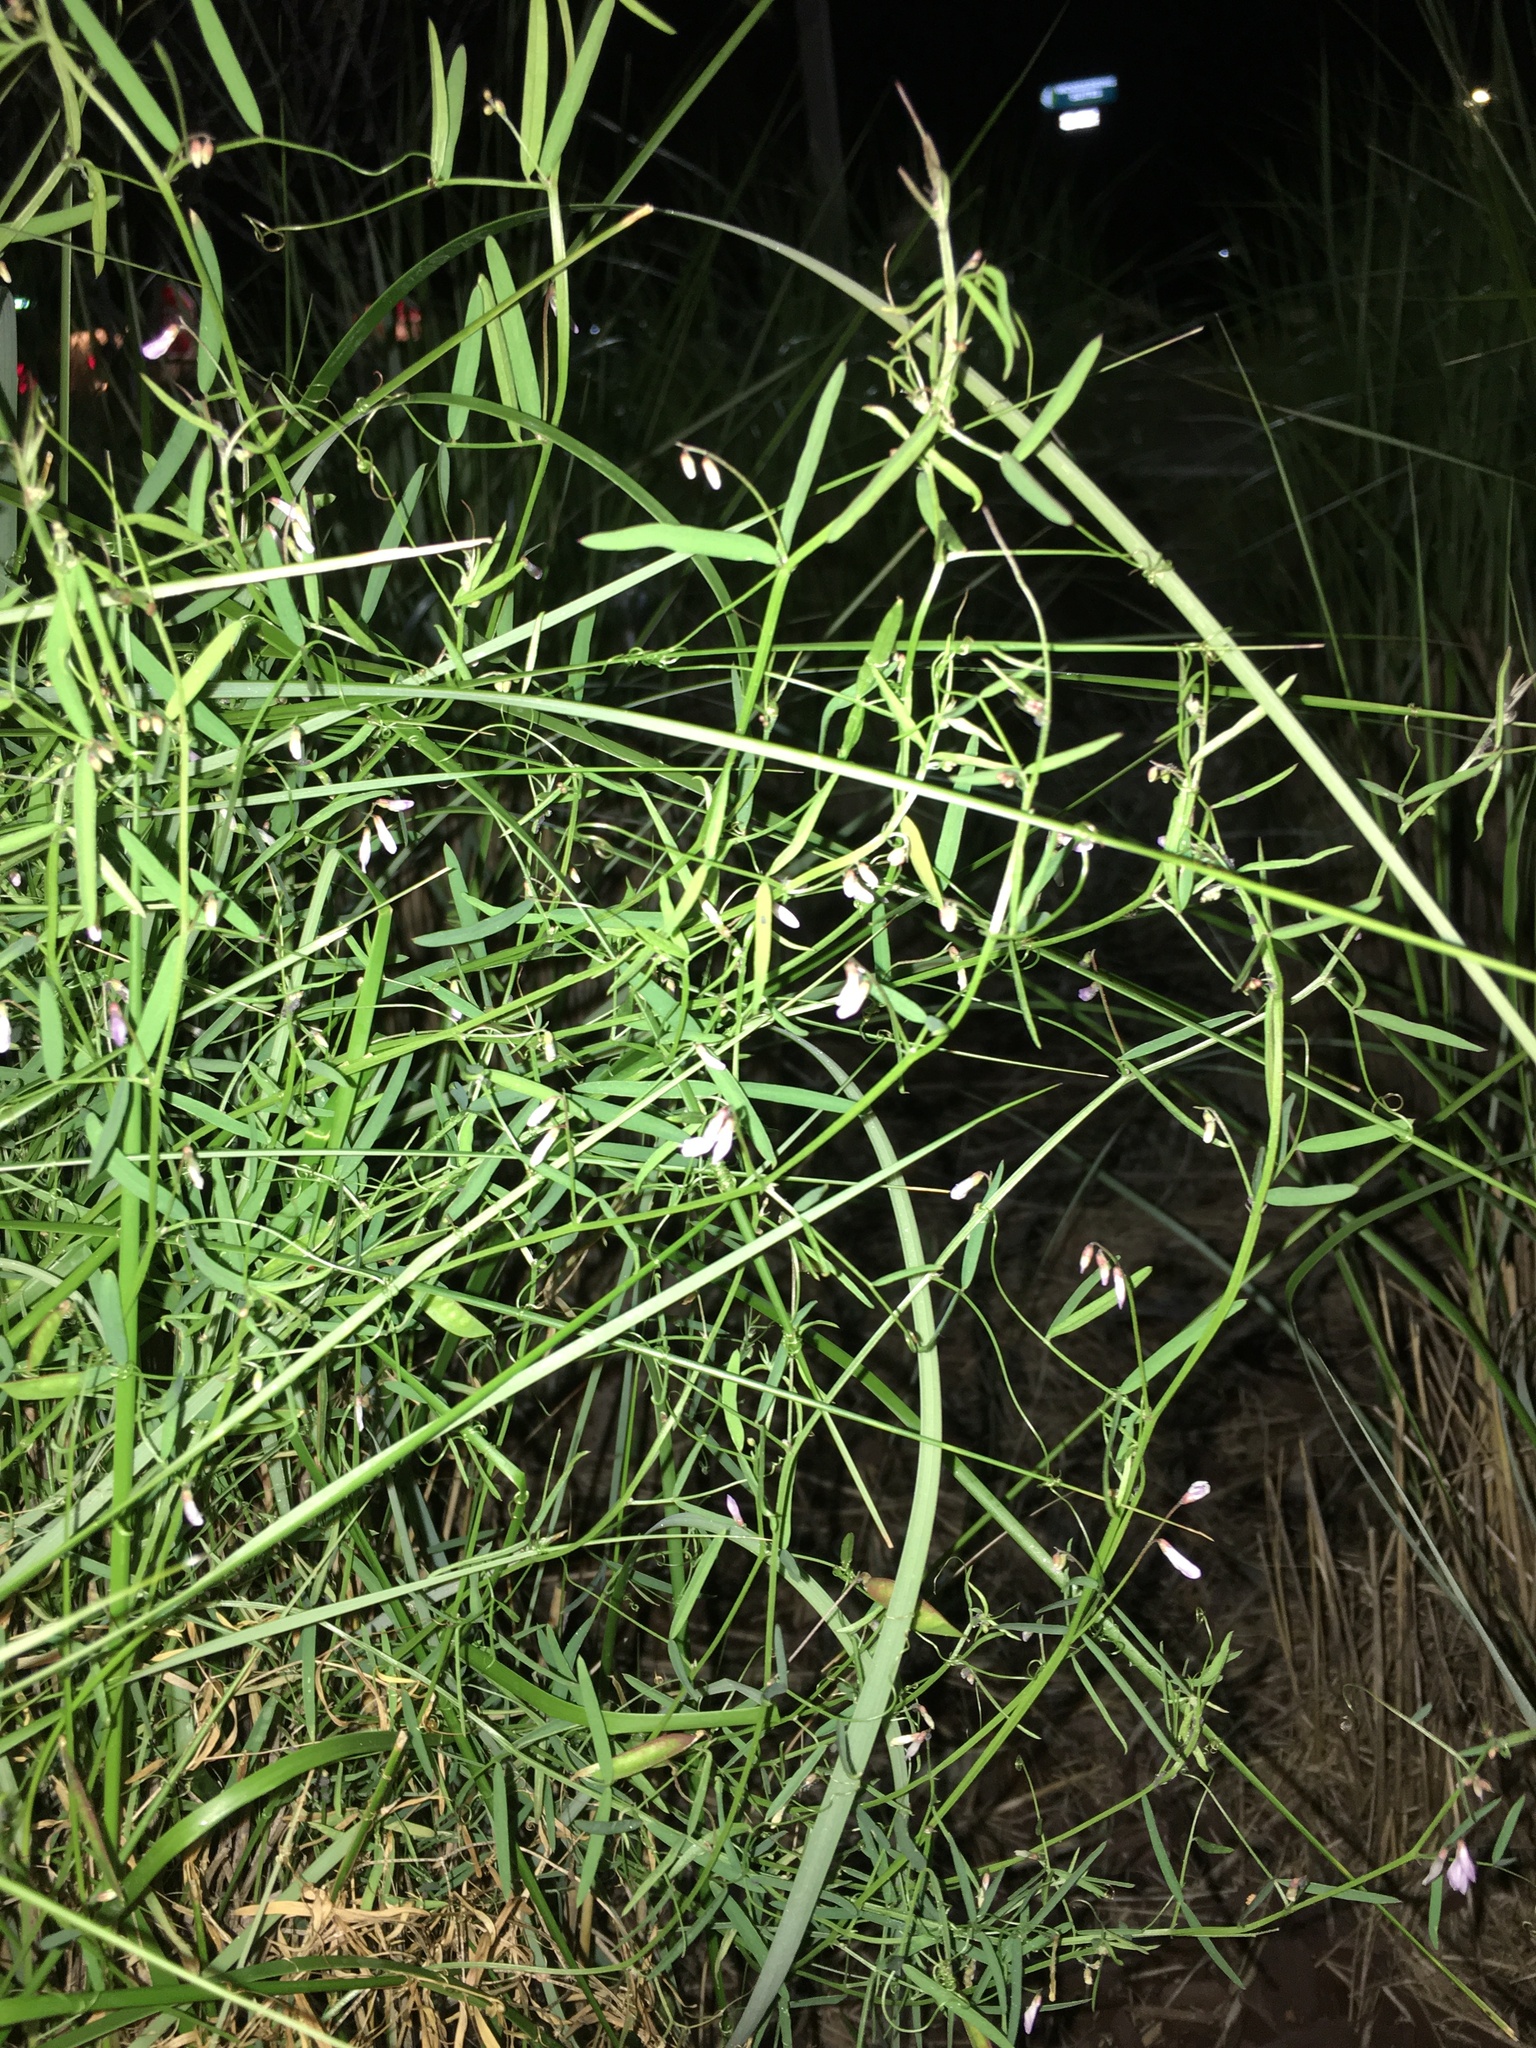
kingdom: Plantae
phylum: Tracheophyta
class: Magnoliopsida
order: Fabales
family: Fabaceae
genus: Vicia
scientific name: Vicia acutifolia
